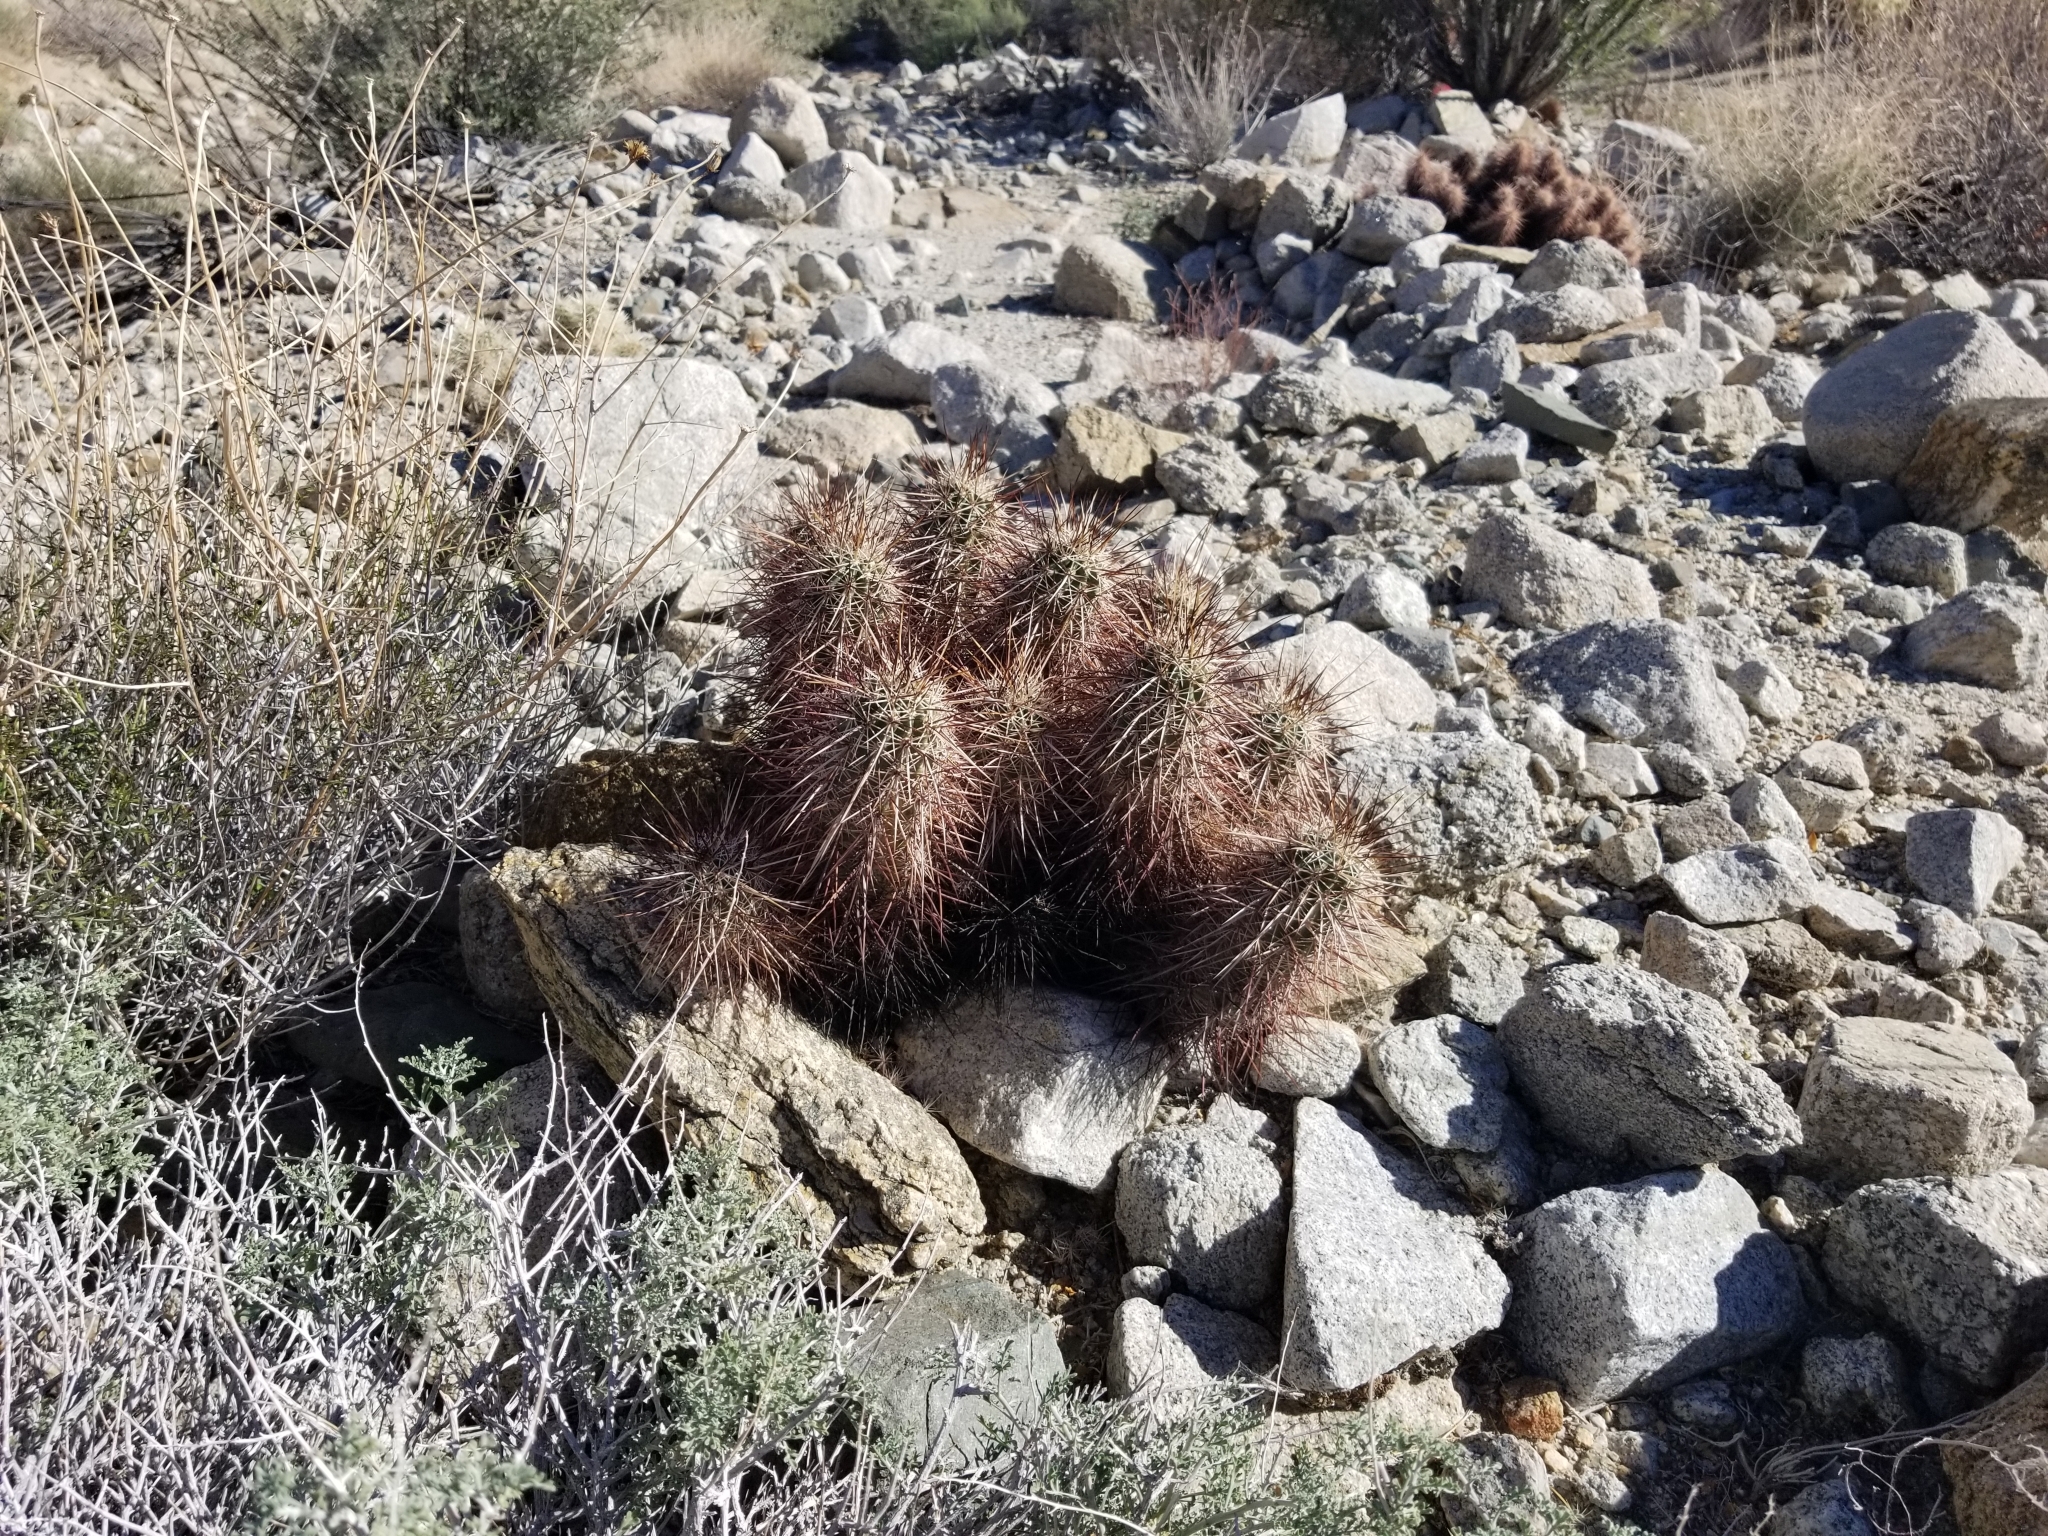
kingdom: Plantae
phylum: Tracheophyta
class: Magnoliopsida
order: Caryophyllales
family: Cactaceae
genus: Echinocereus
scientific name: Echinocereus engelmannii
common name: Engelmann's hedgehog cactus
